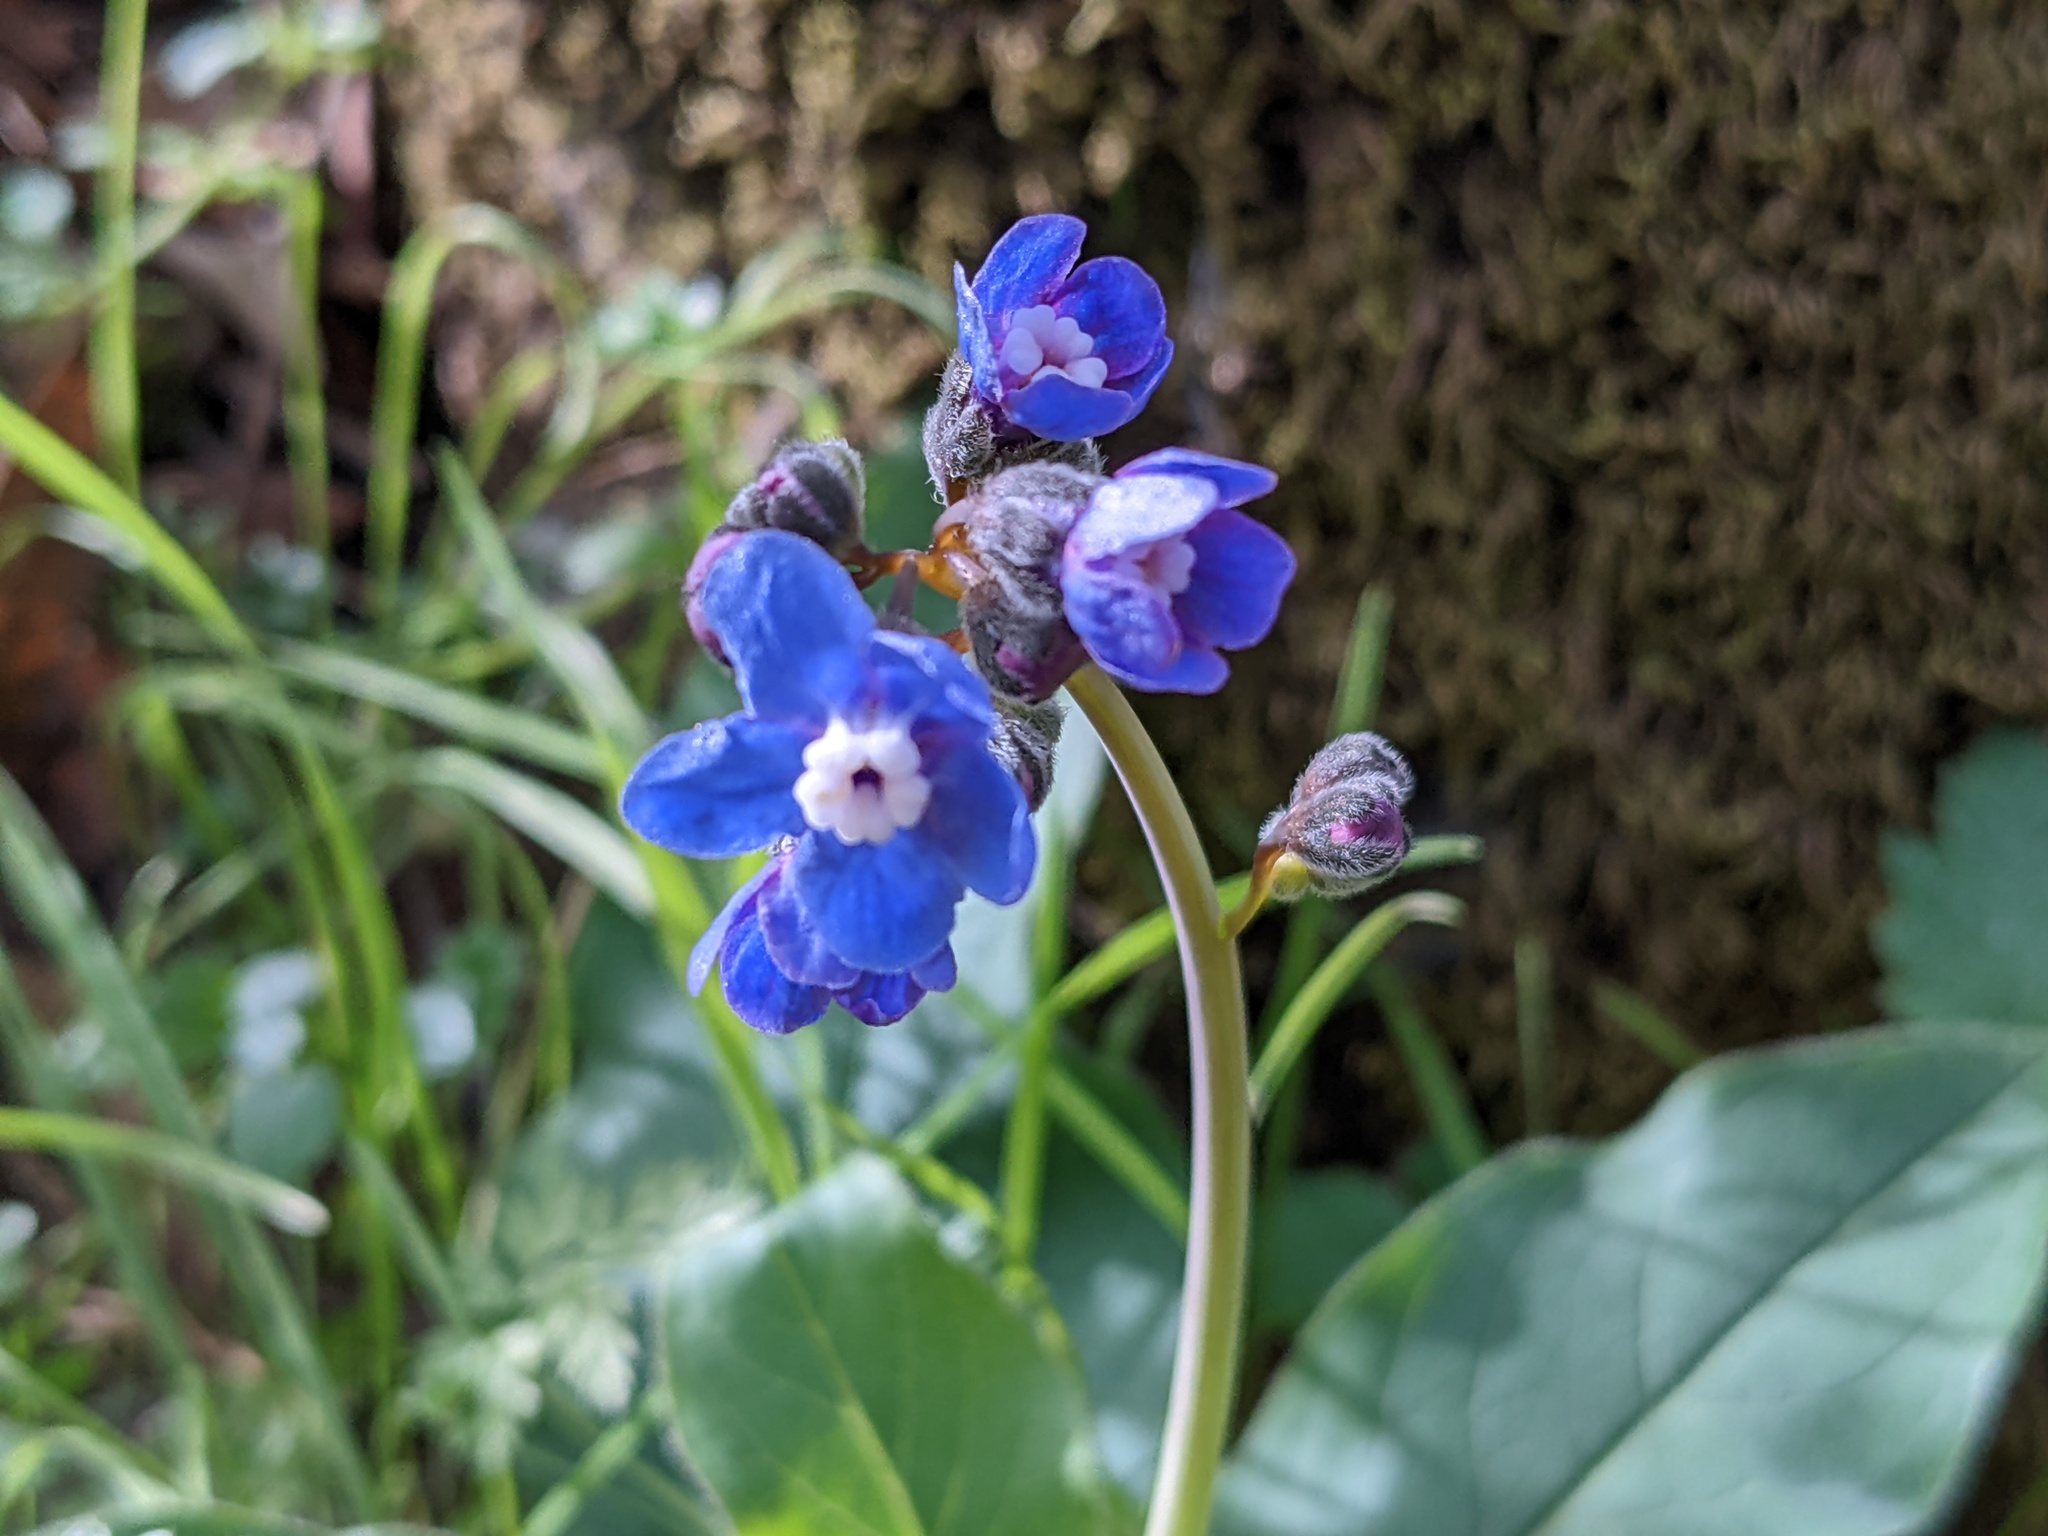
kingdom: Plantae
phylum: Tracheophyta
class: Magnoliopsida
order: Boraginales
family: Boraginaceae
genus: Adelinia
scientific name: Adelinia grande
